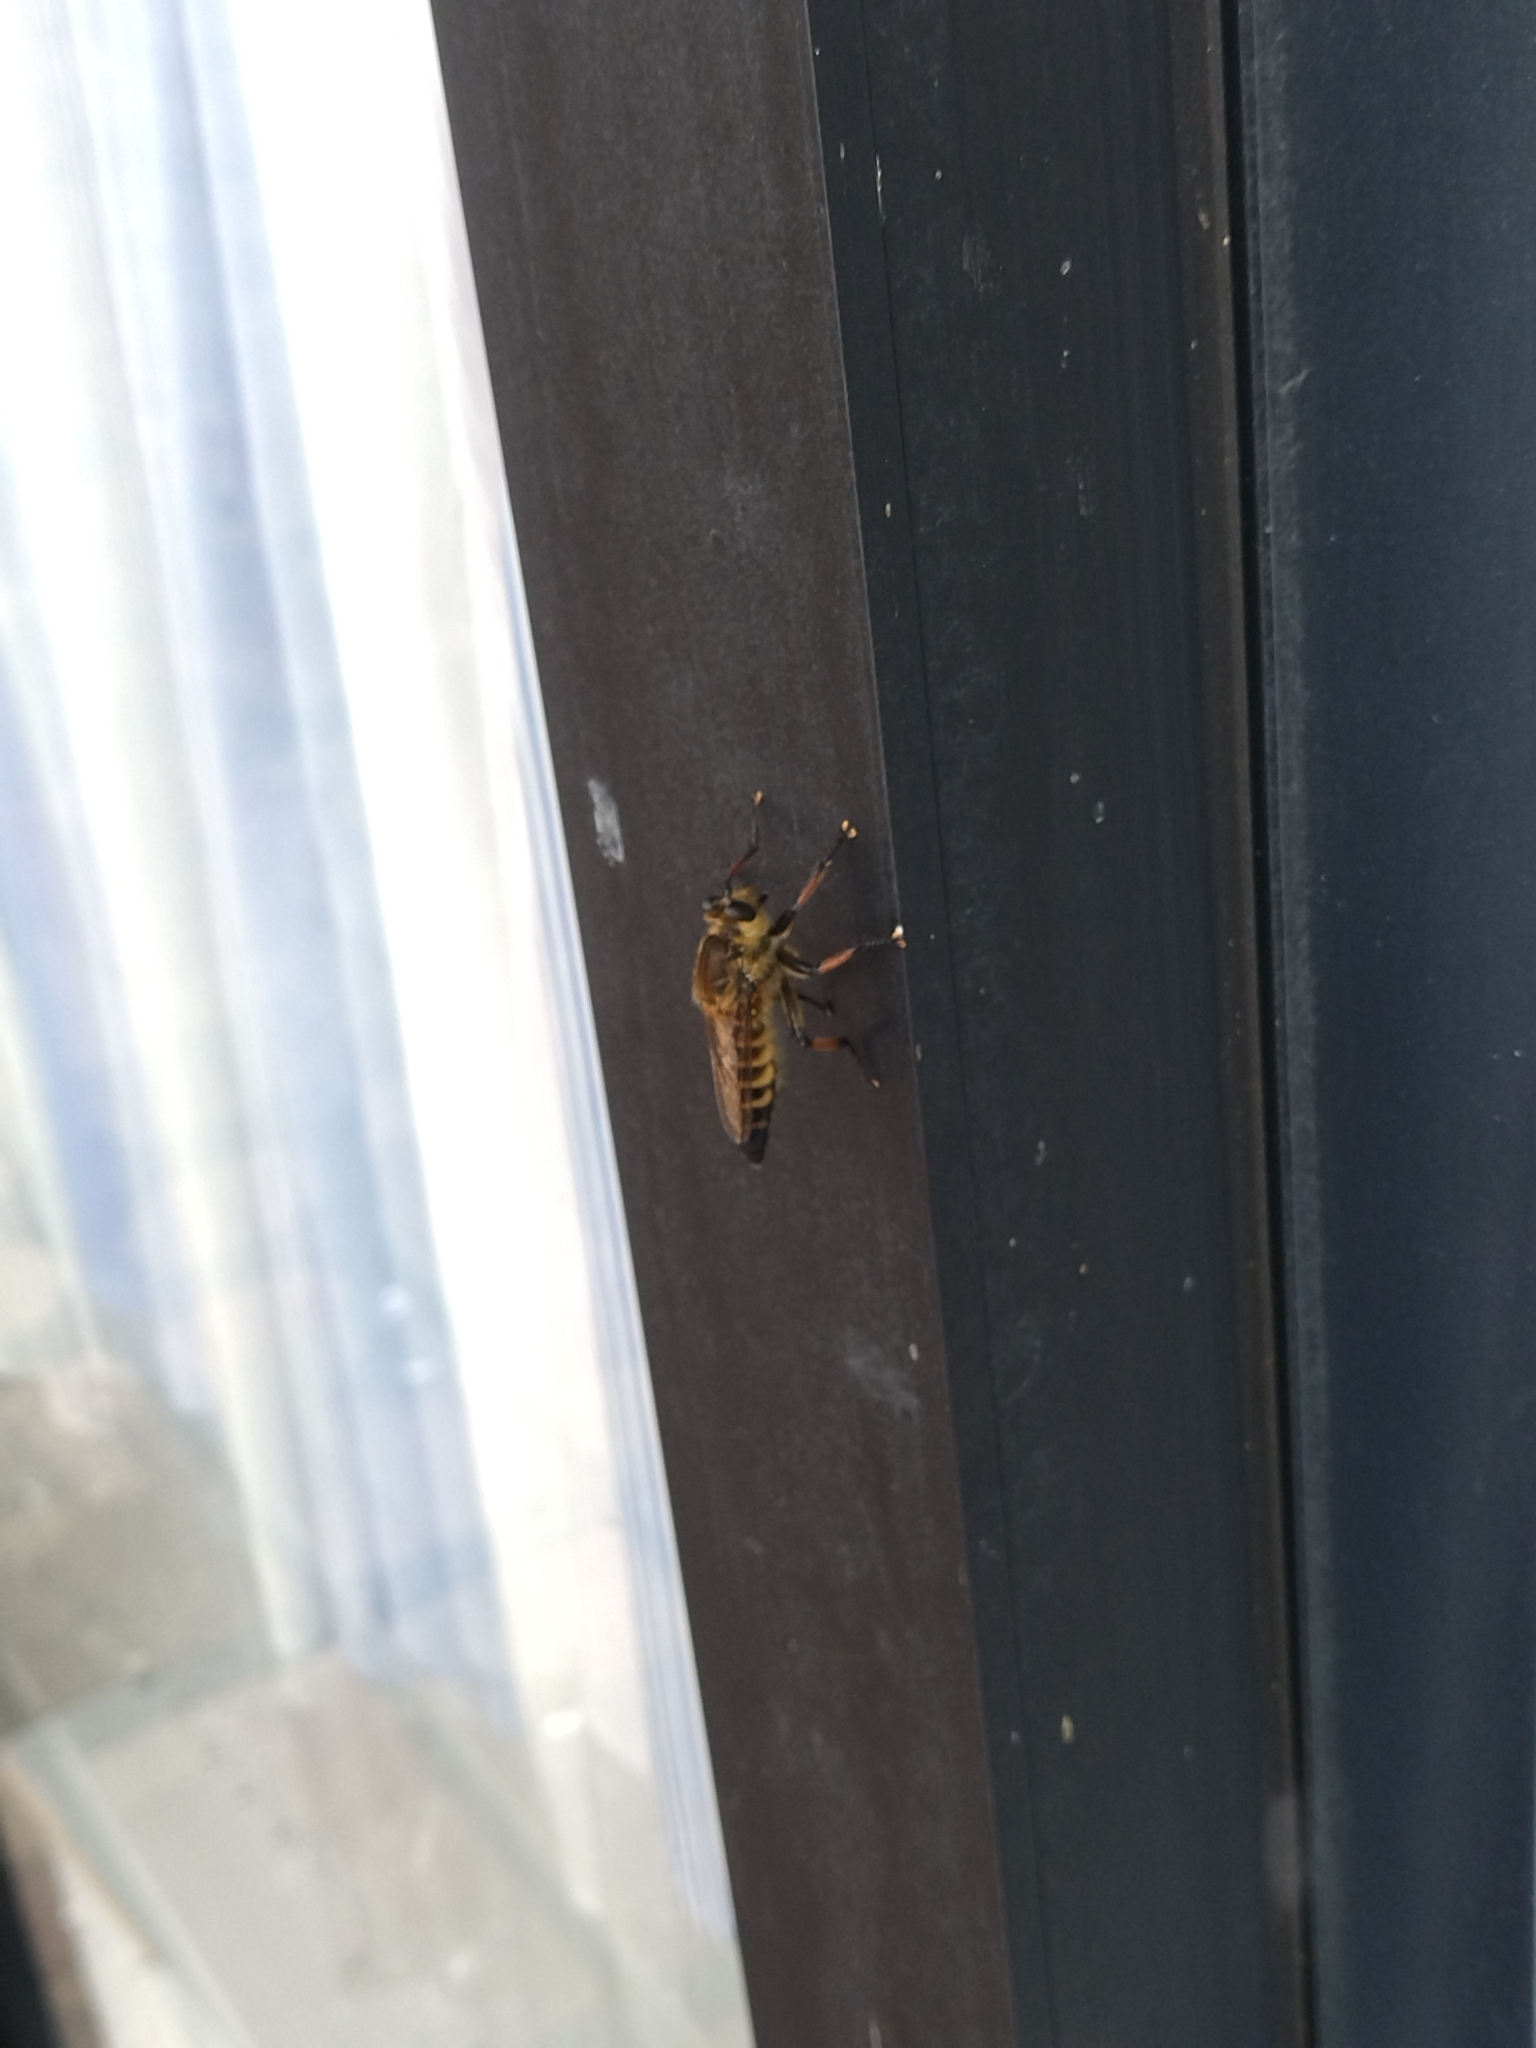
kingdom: Animalia
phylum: Arthropoda
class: Insecta
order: Diptera
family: Asilidae
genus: Promachus
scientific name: Promachus yesonicus
